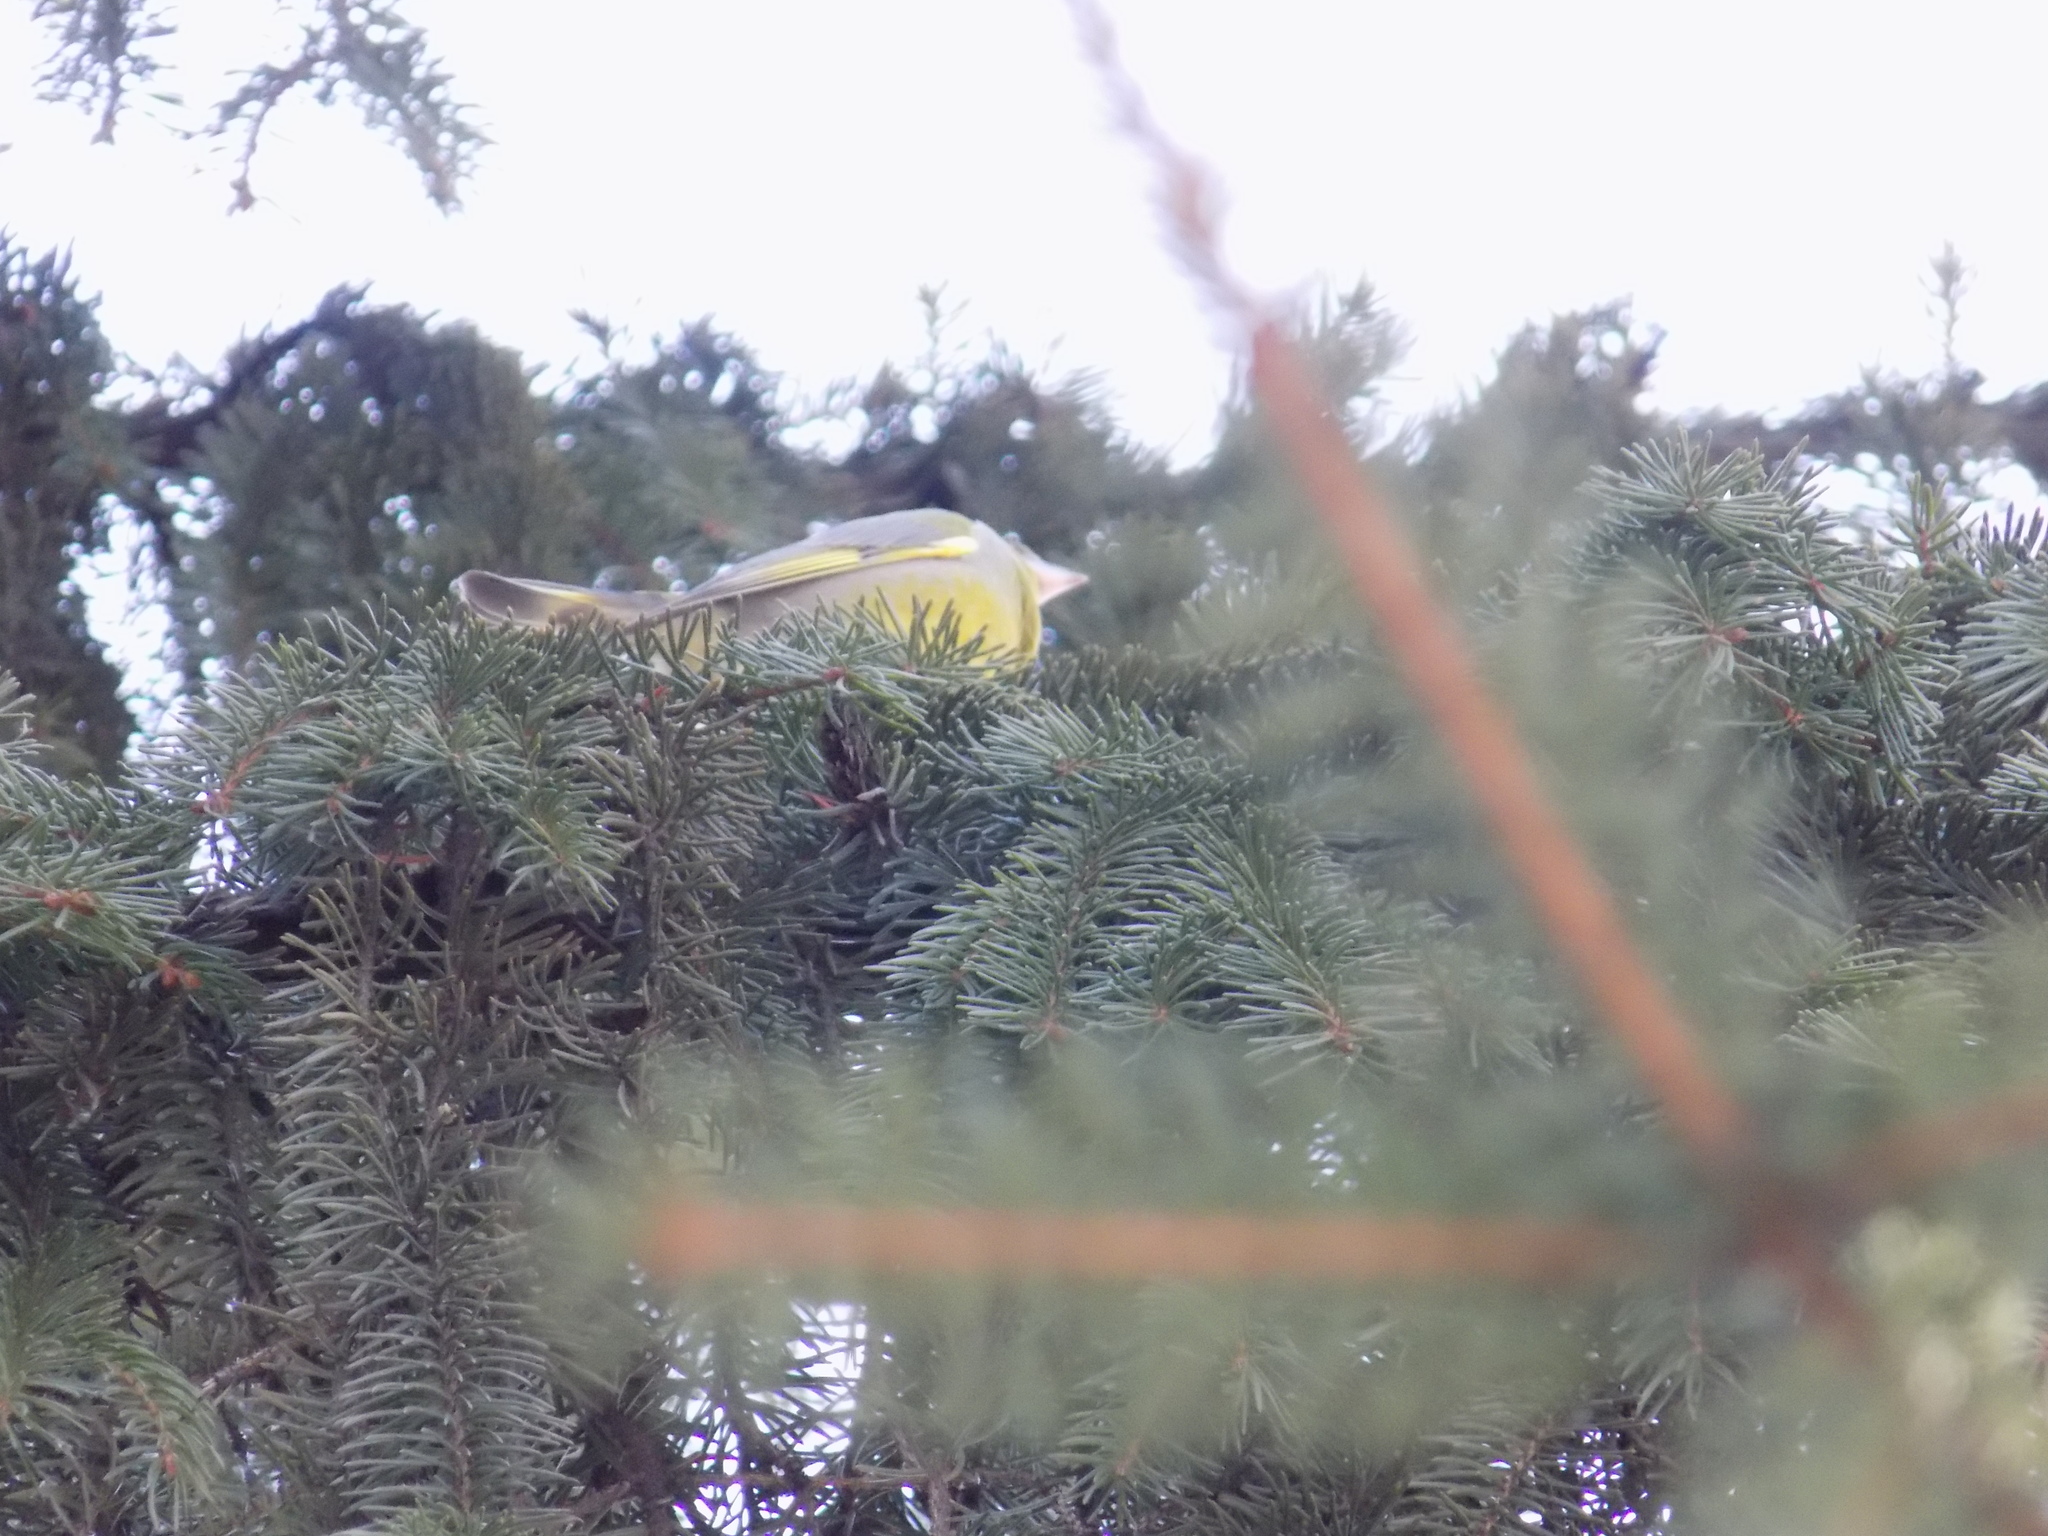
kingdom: Plantae
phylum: Tracheophyta
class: Liliopsida
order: Poales
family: Poaceae
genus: Chloris
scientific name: Chloris chloris
